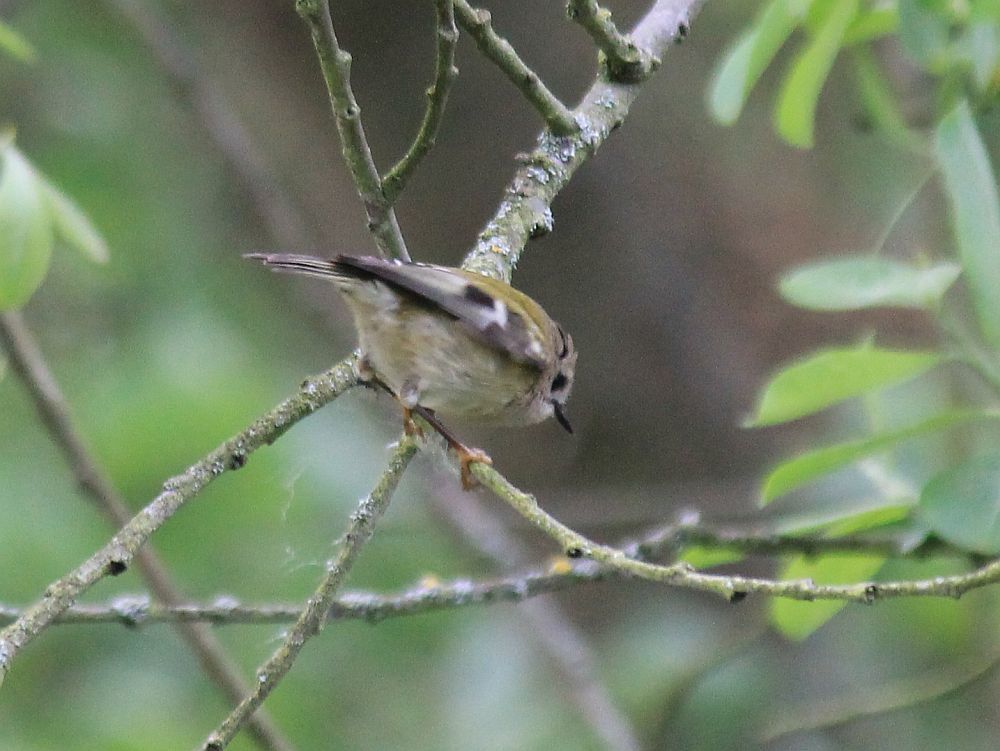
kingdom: Animalia
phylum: Chordata
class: Aves
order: Passeriformes
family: Regulidae
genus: Regulus
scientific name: Regulus regulus
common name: Goldcrest
